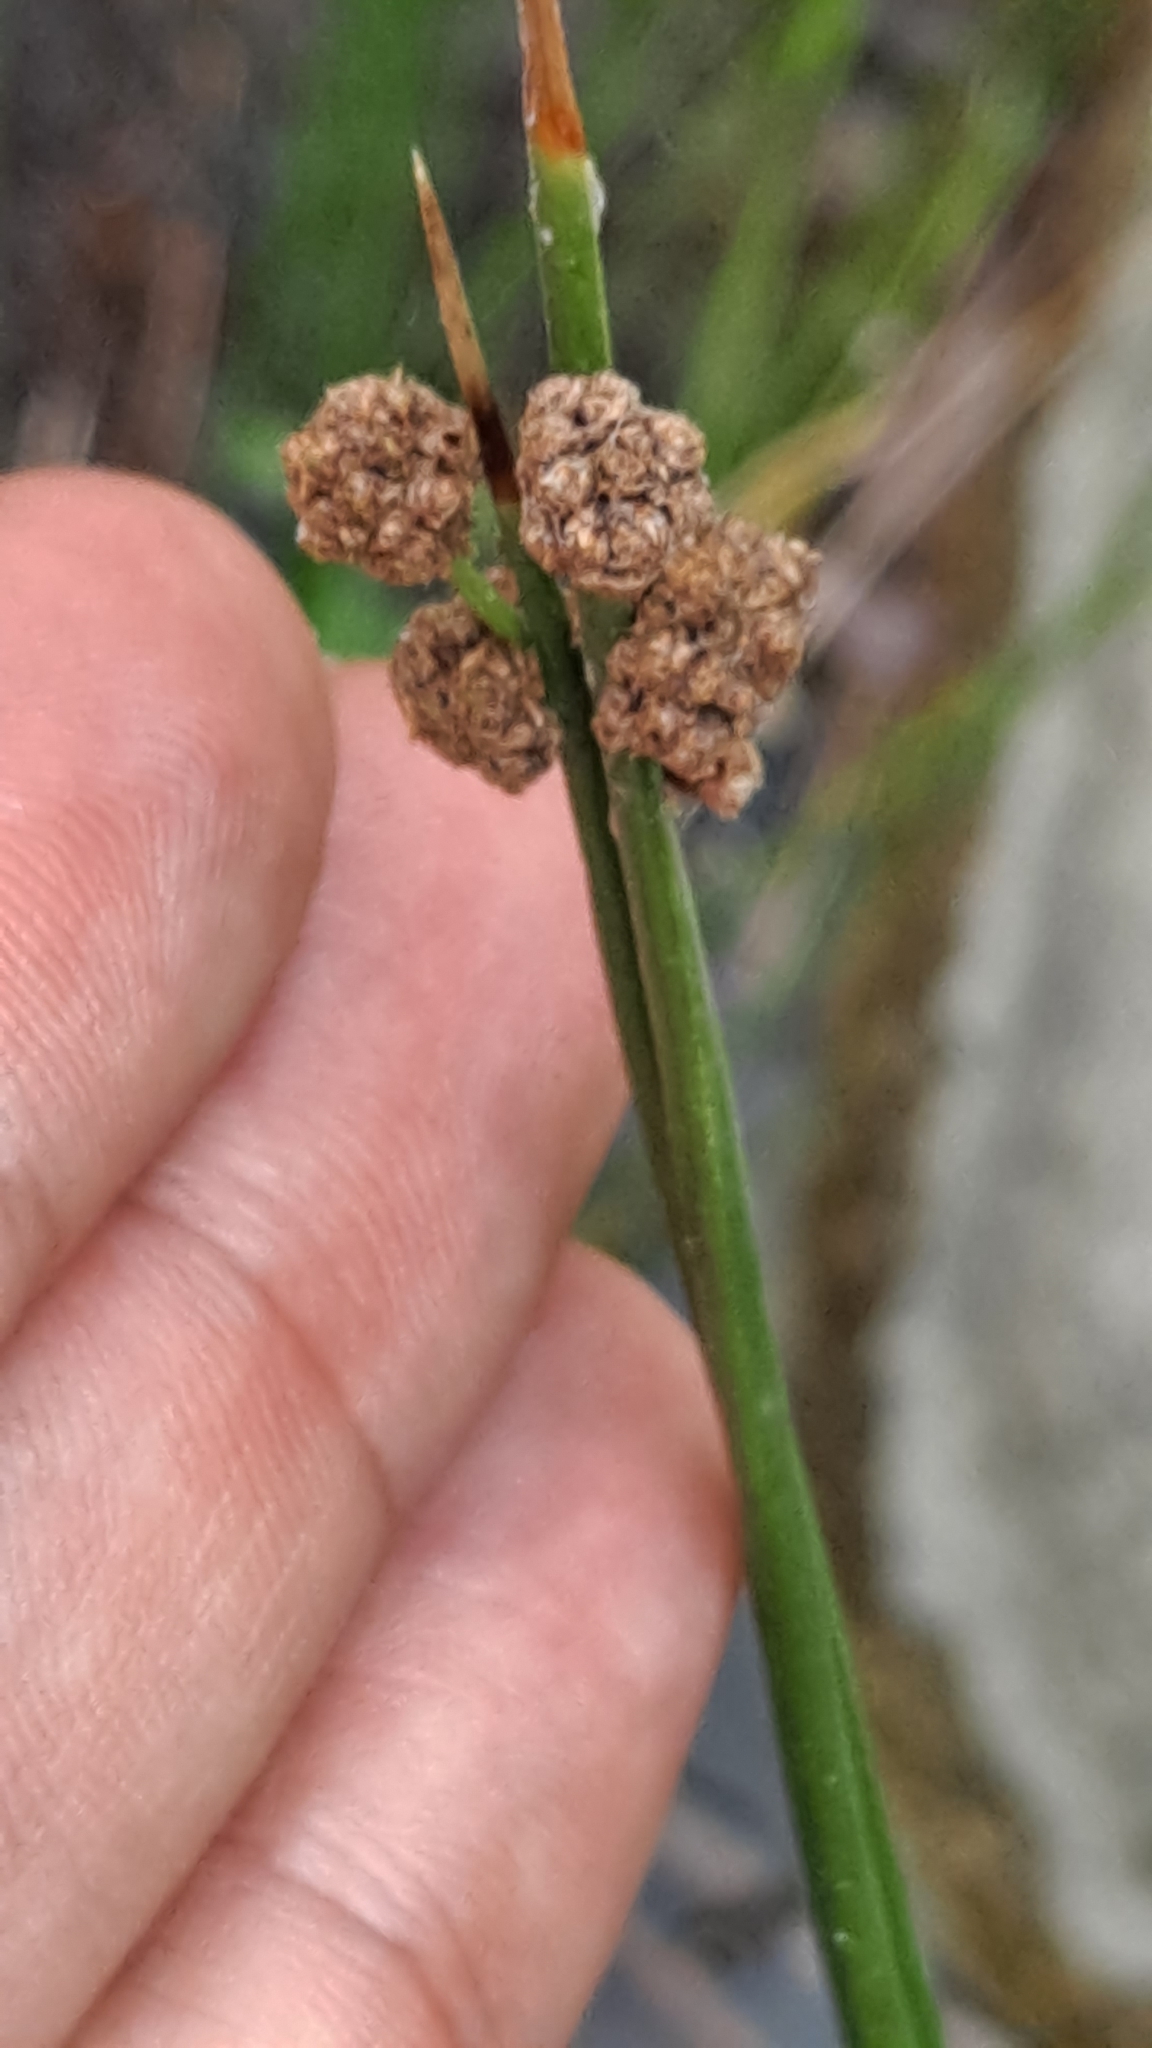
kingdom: Plantae
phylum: Tracheophyta
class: Liliopsida
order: Poales
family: Cyperaceae
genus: Scirpoides
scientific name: Scirpoides holoschoenus
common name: Round-headed club-rush
